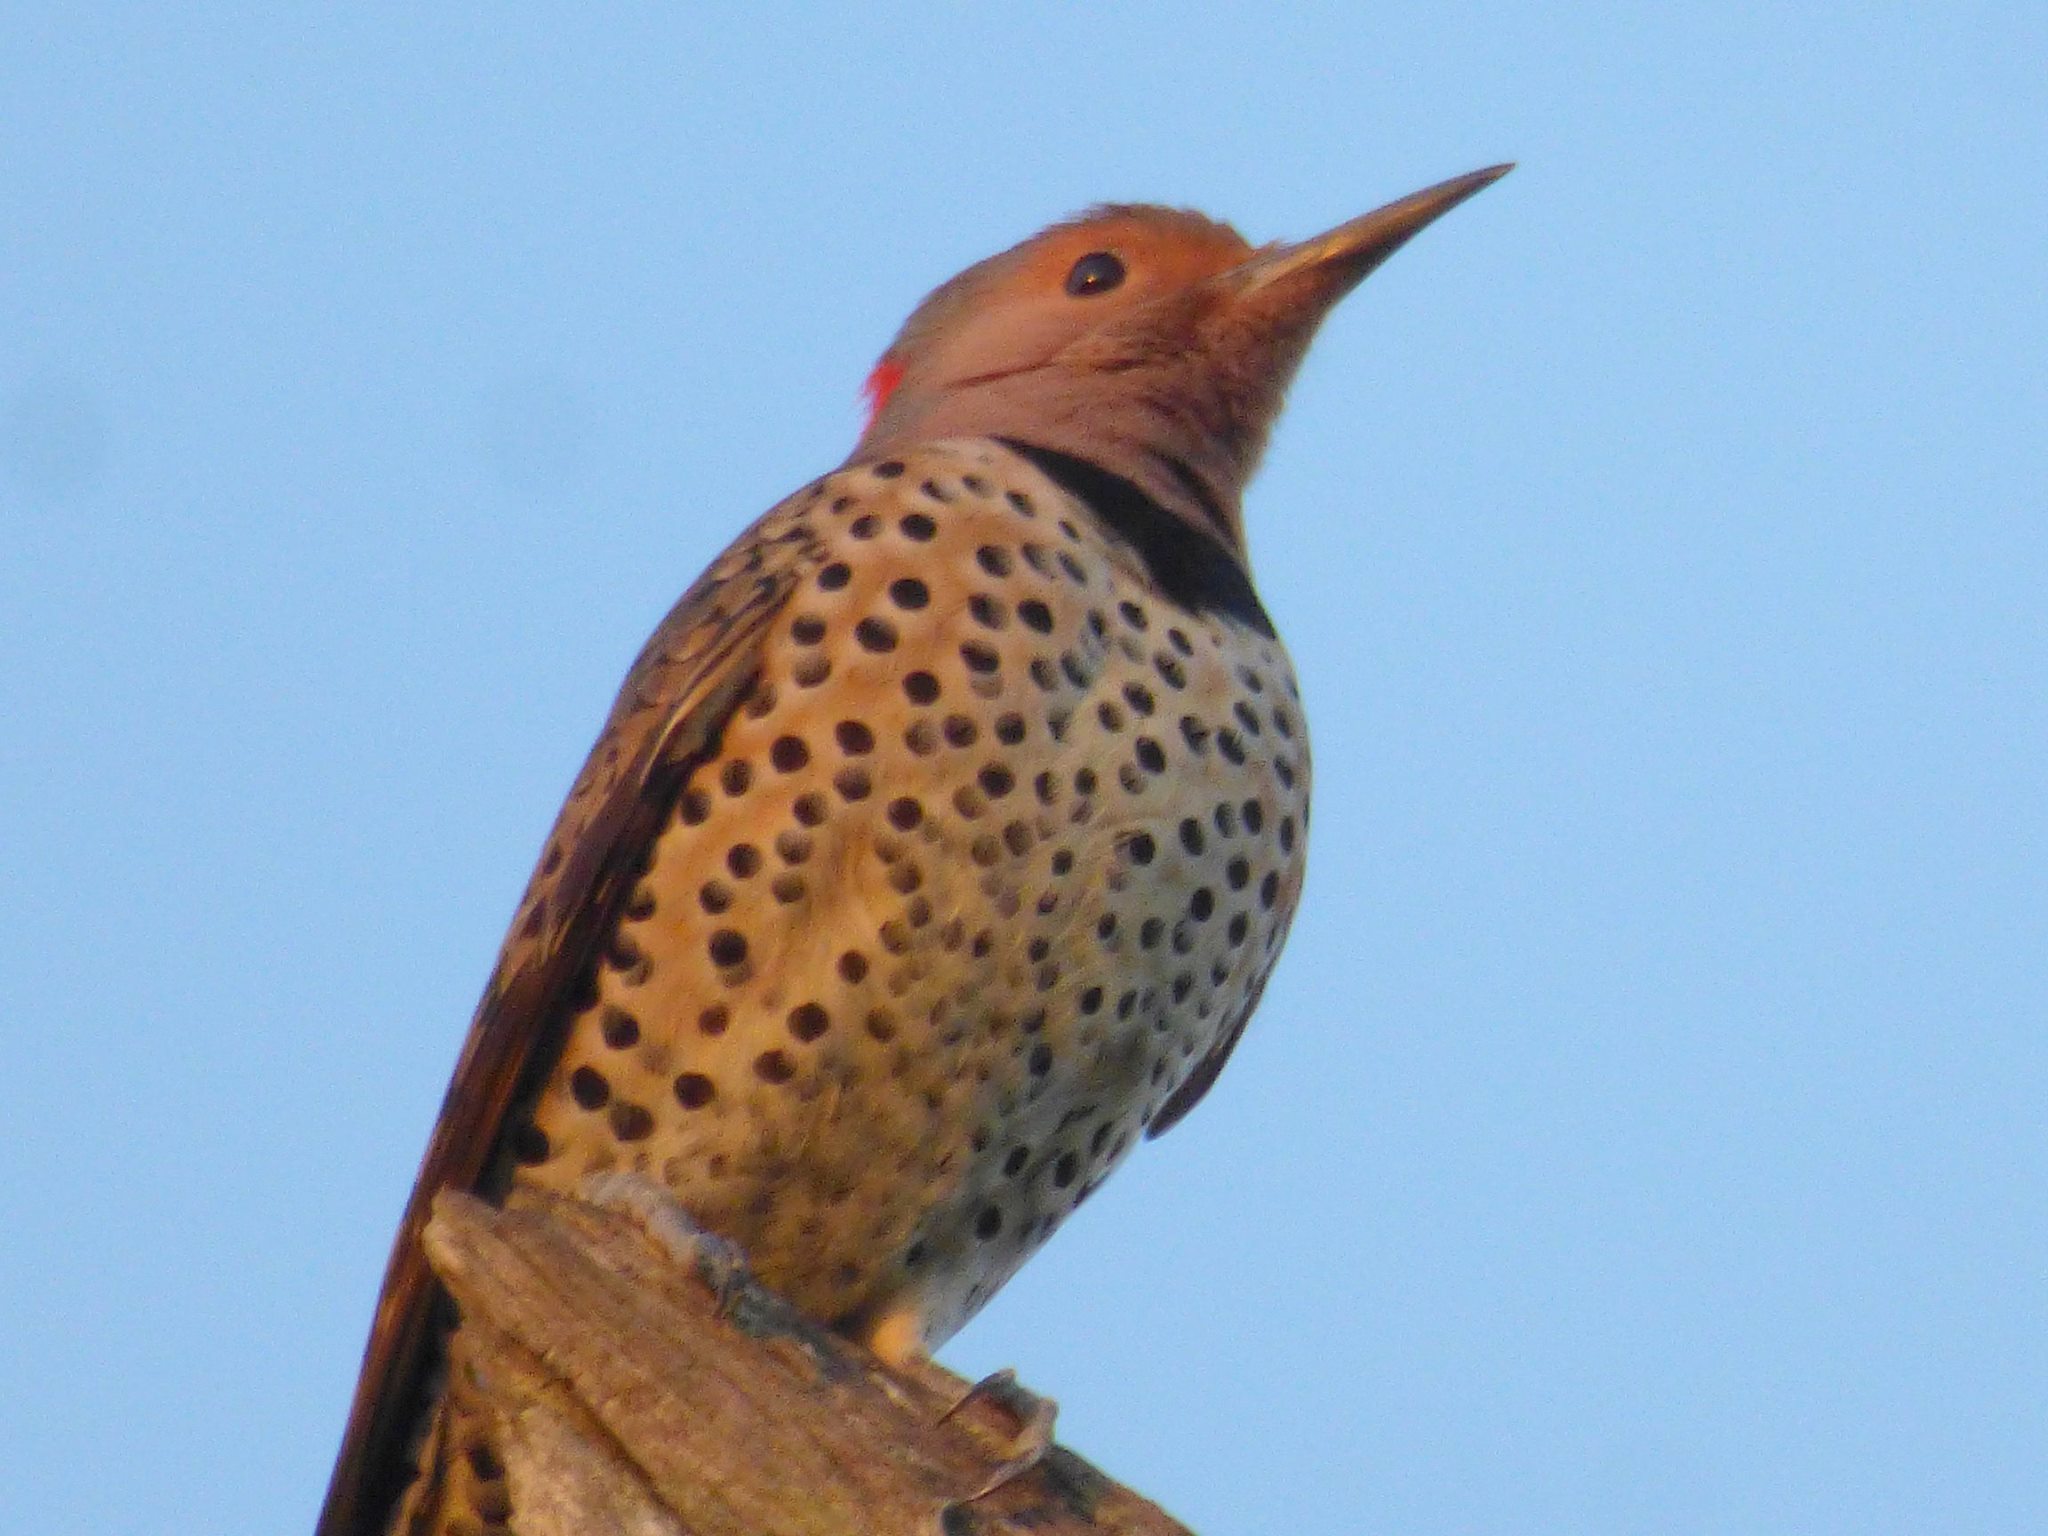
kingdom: Animalia
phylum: Chordata
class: Aves
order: Piciformes
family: Picidae
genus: Colaptes
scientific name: Colaptes auratus
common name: Northern flicker
